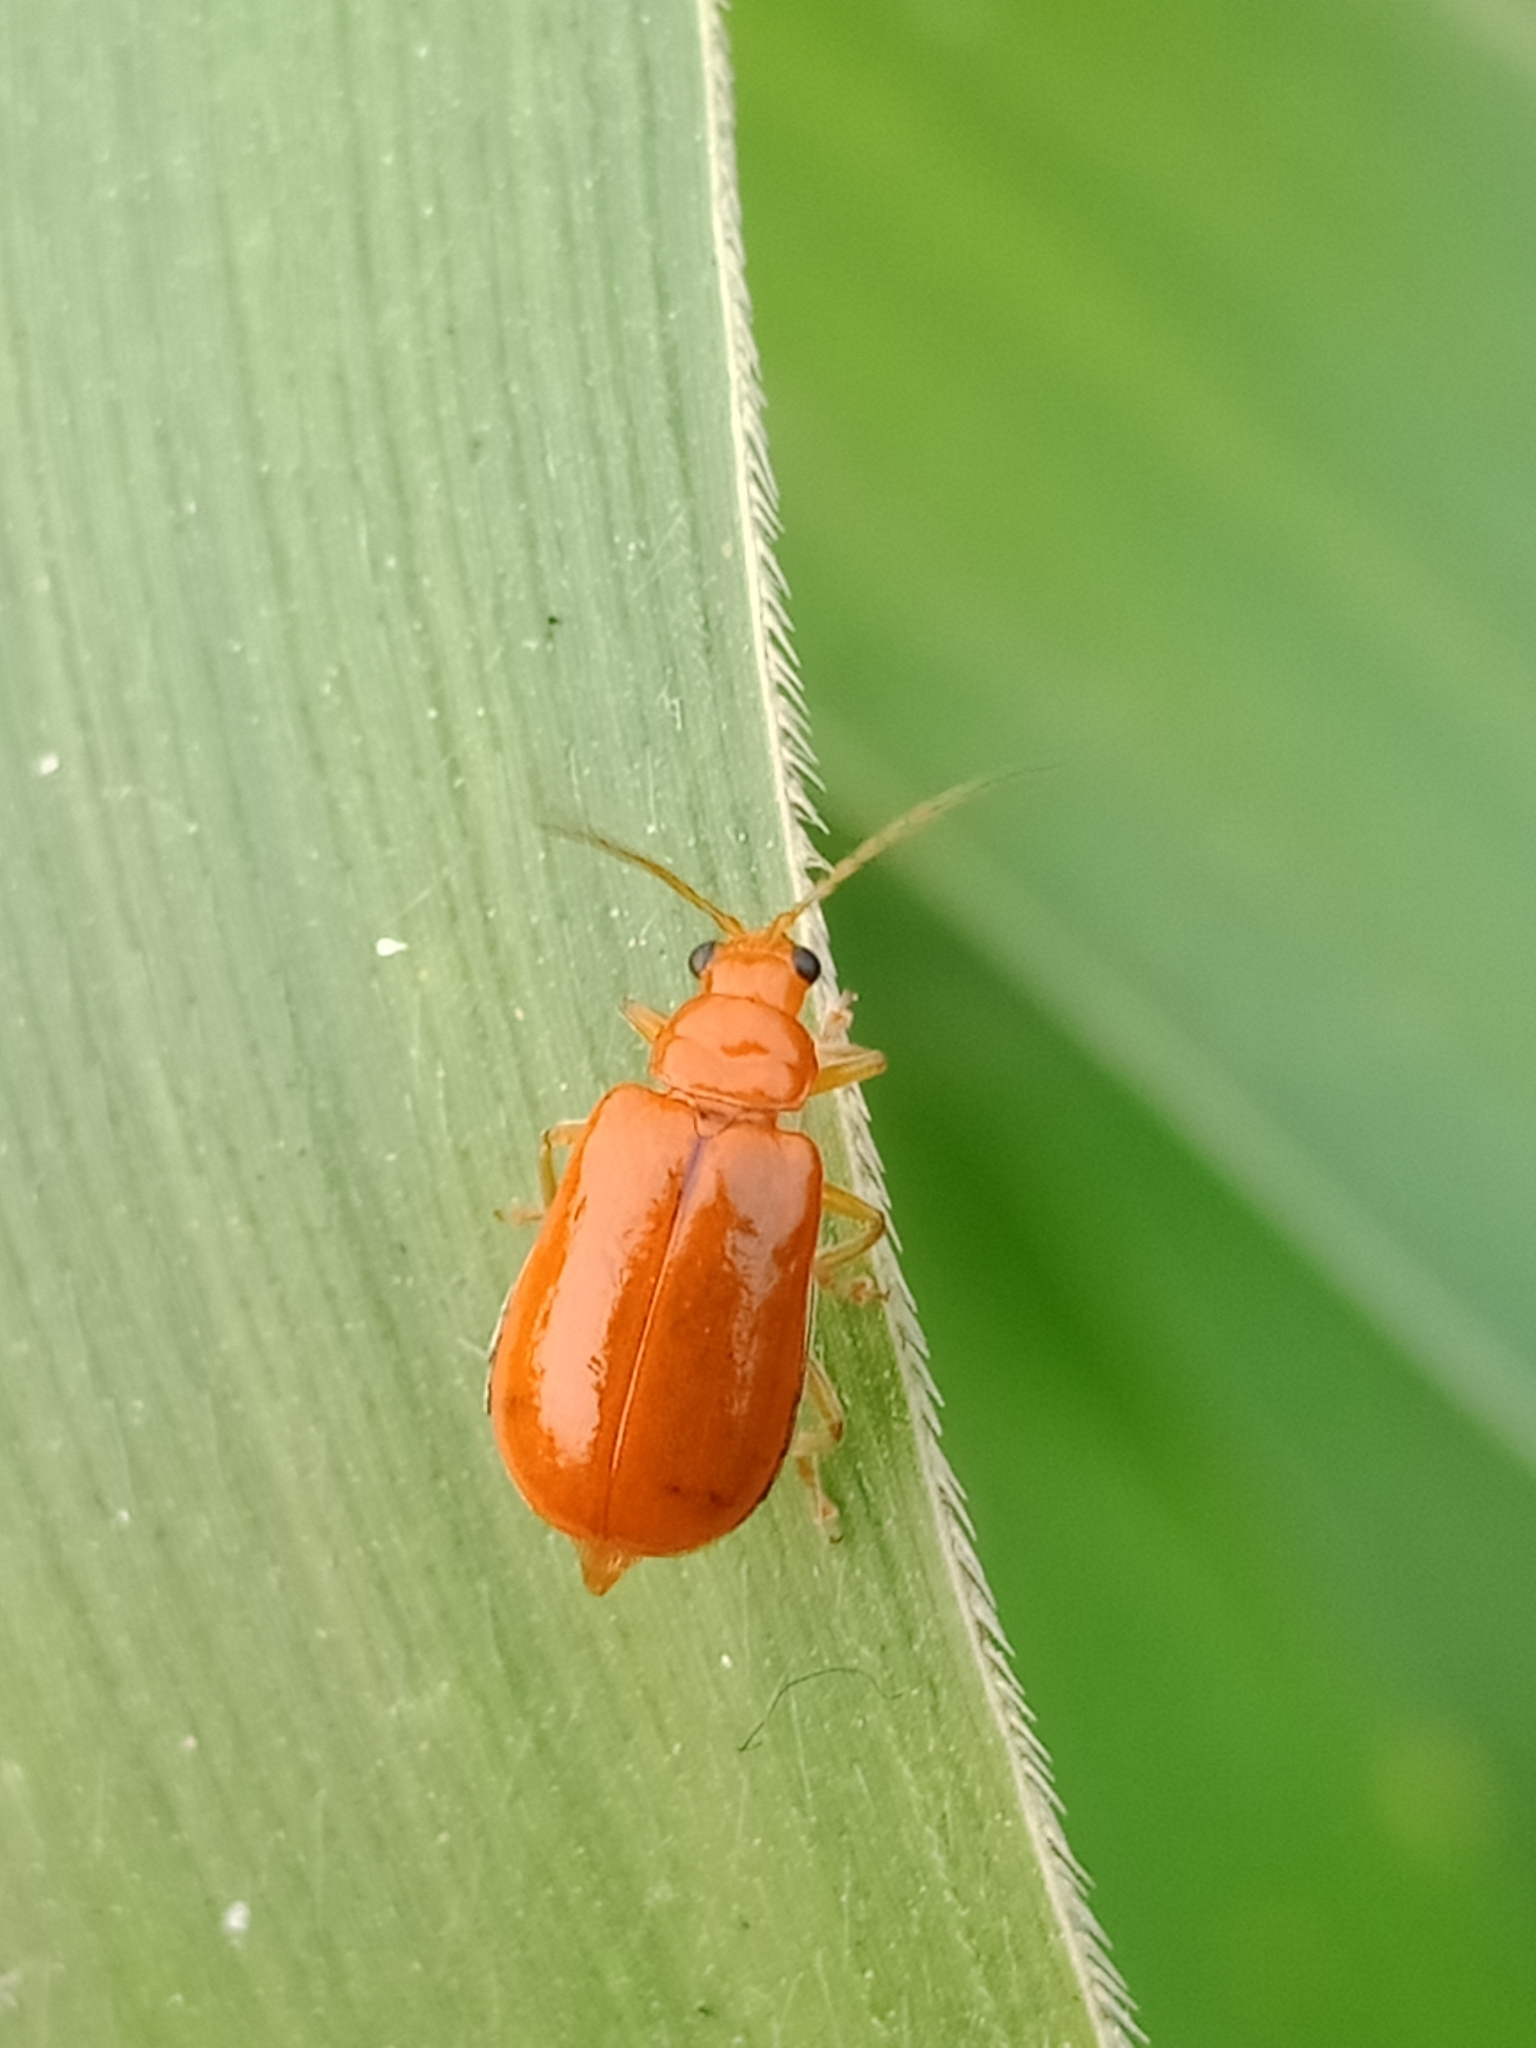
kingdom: Animalia
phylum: Arthropoda
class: Insecta
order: Coleoptera
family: Chrysomelidae
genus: Aulacophora
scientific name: Aulacophora
